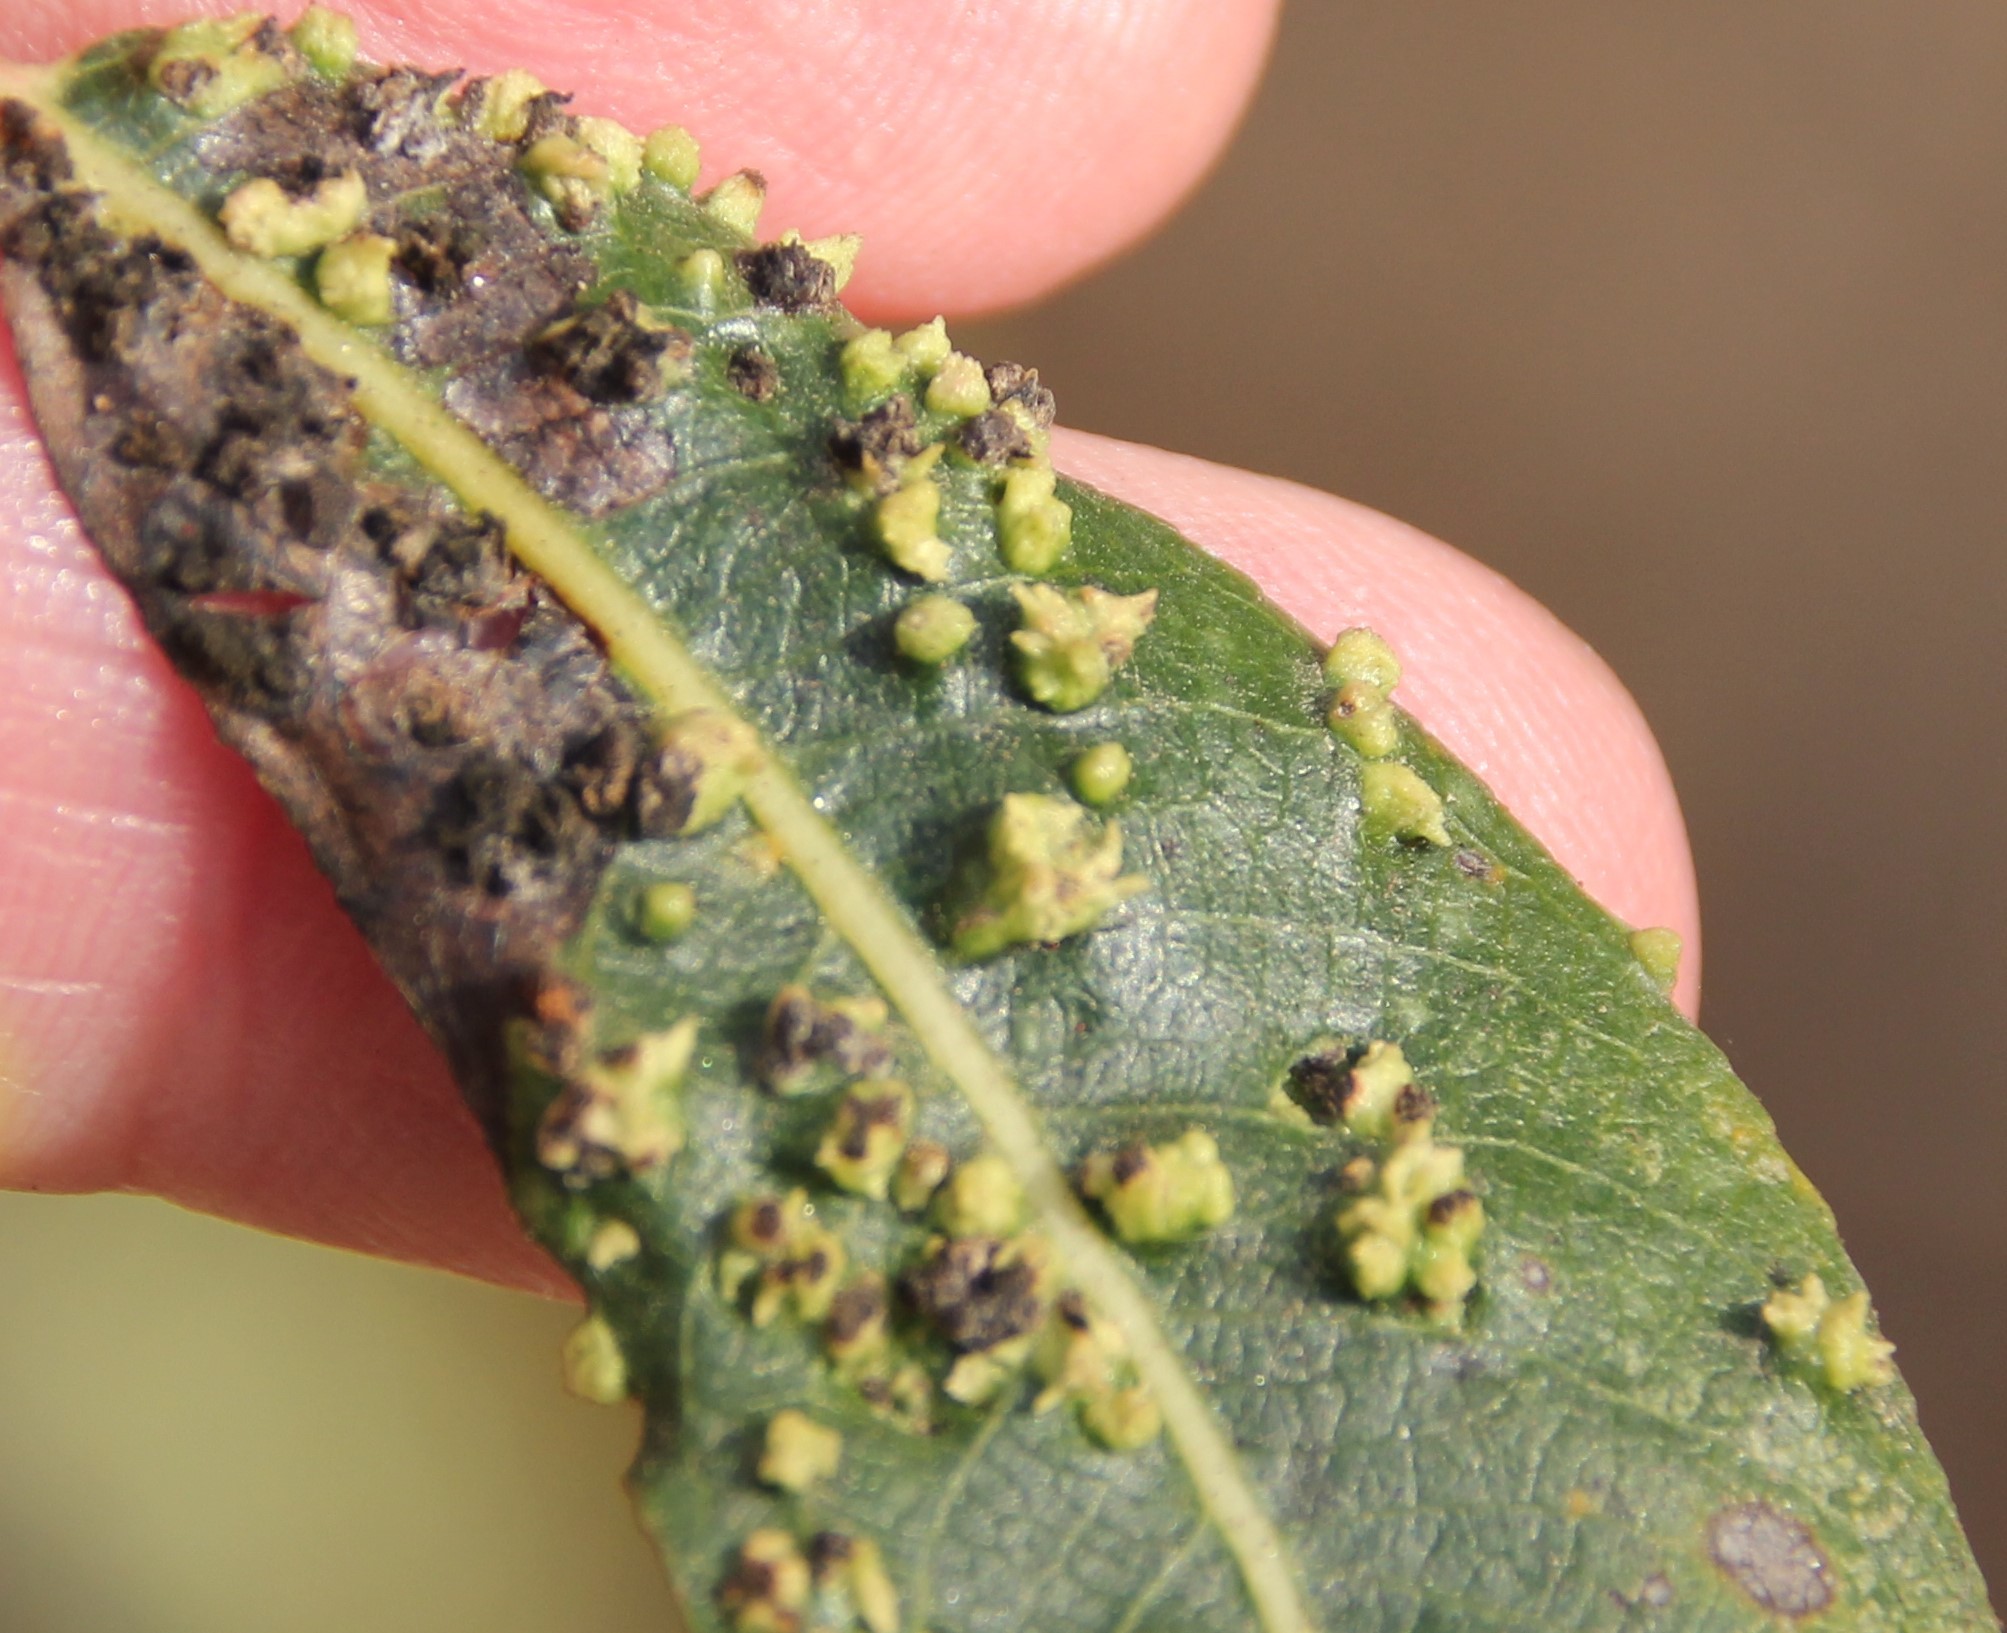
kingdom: Animalia
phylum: Arthropoda
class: Arachnida
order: Trombidiformes
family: Eriophyidae
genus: Aculus
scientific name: Aculus tetanothrix
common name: Willow bead gall mite
